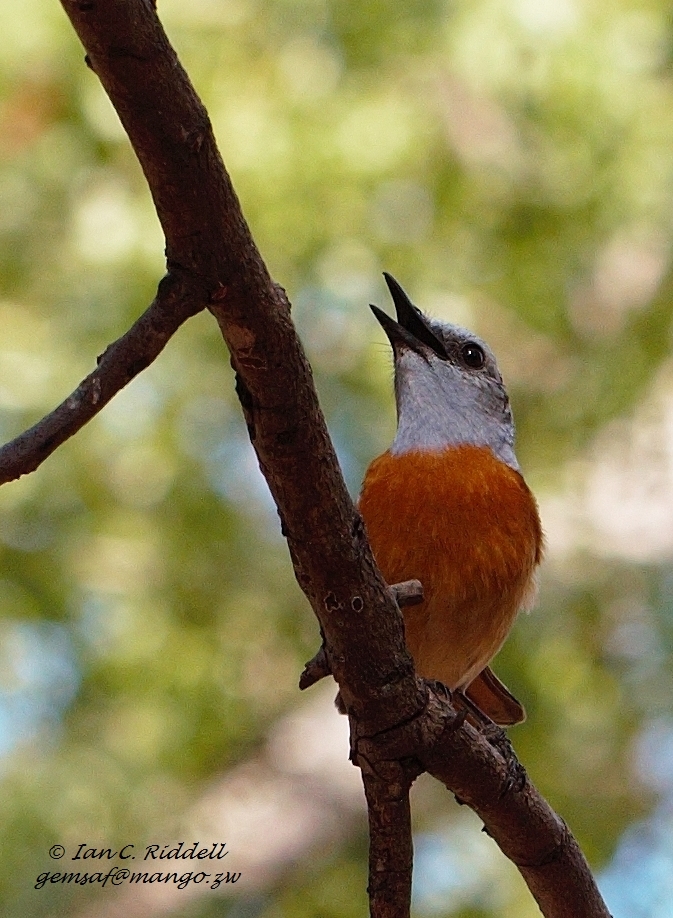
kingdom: Animalia
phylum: Chordata
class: Aves
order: Passeriformes
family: Muscicapidae
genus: Monticola
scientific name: Monticola angolensis
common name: Miombo rock thrush
